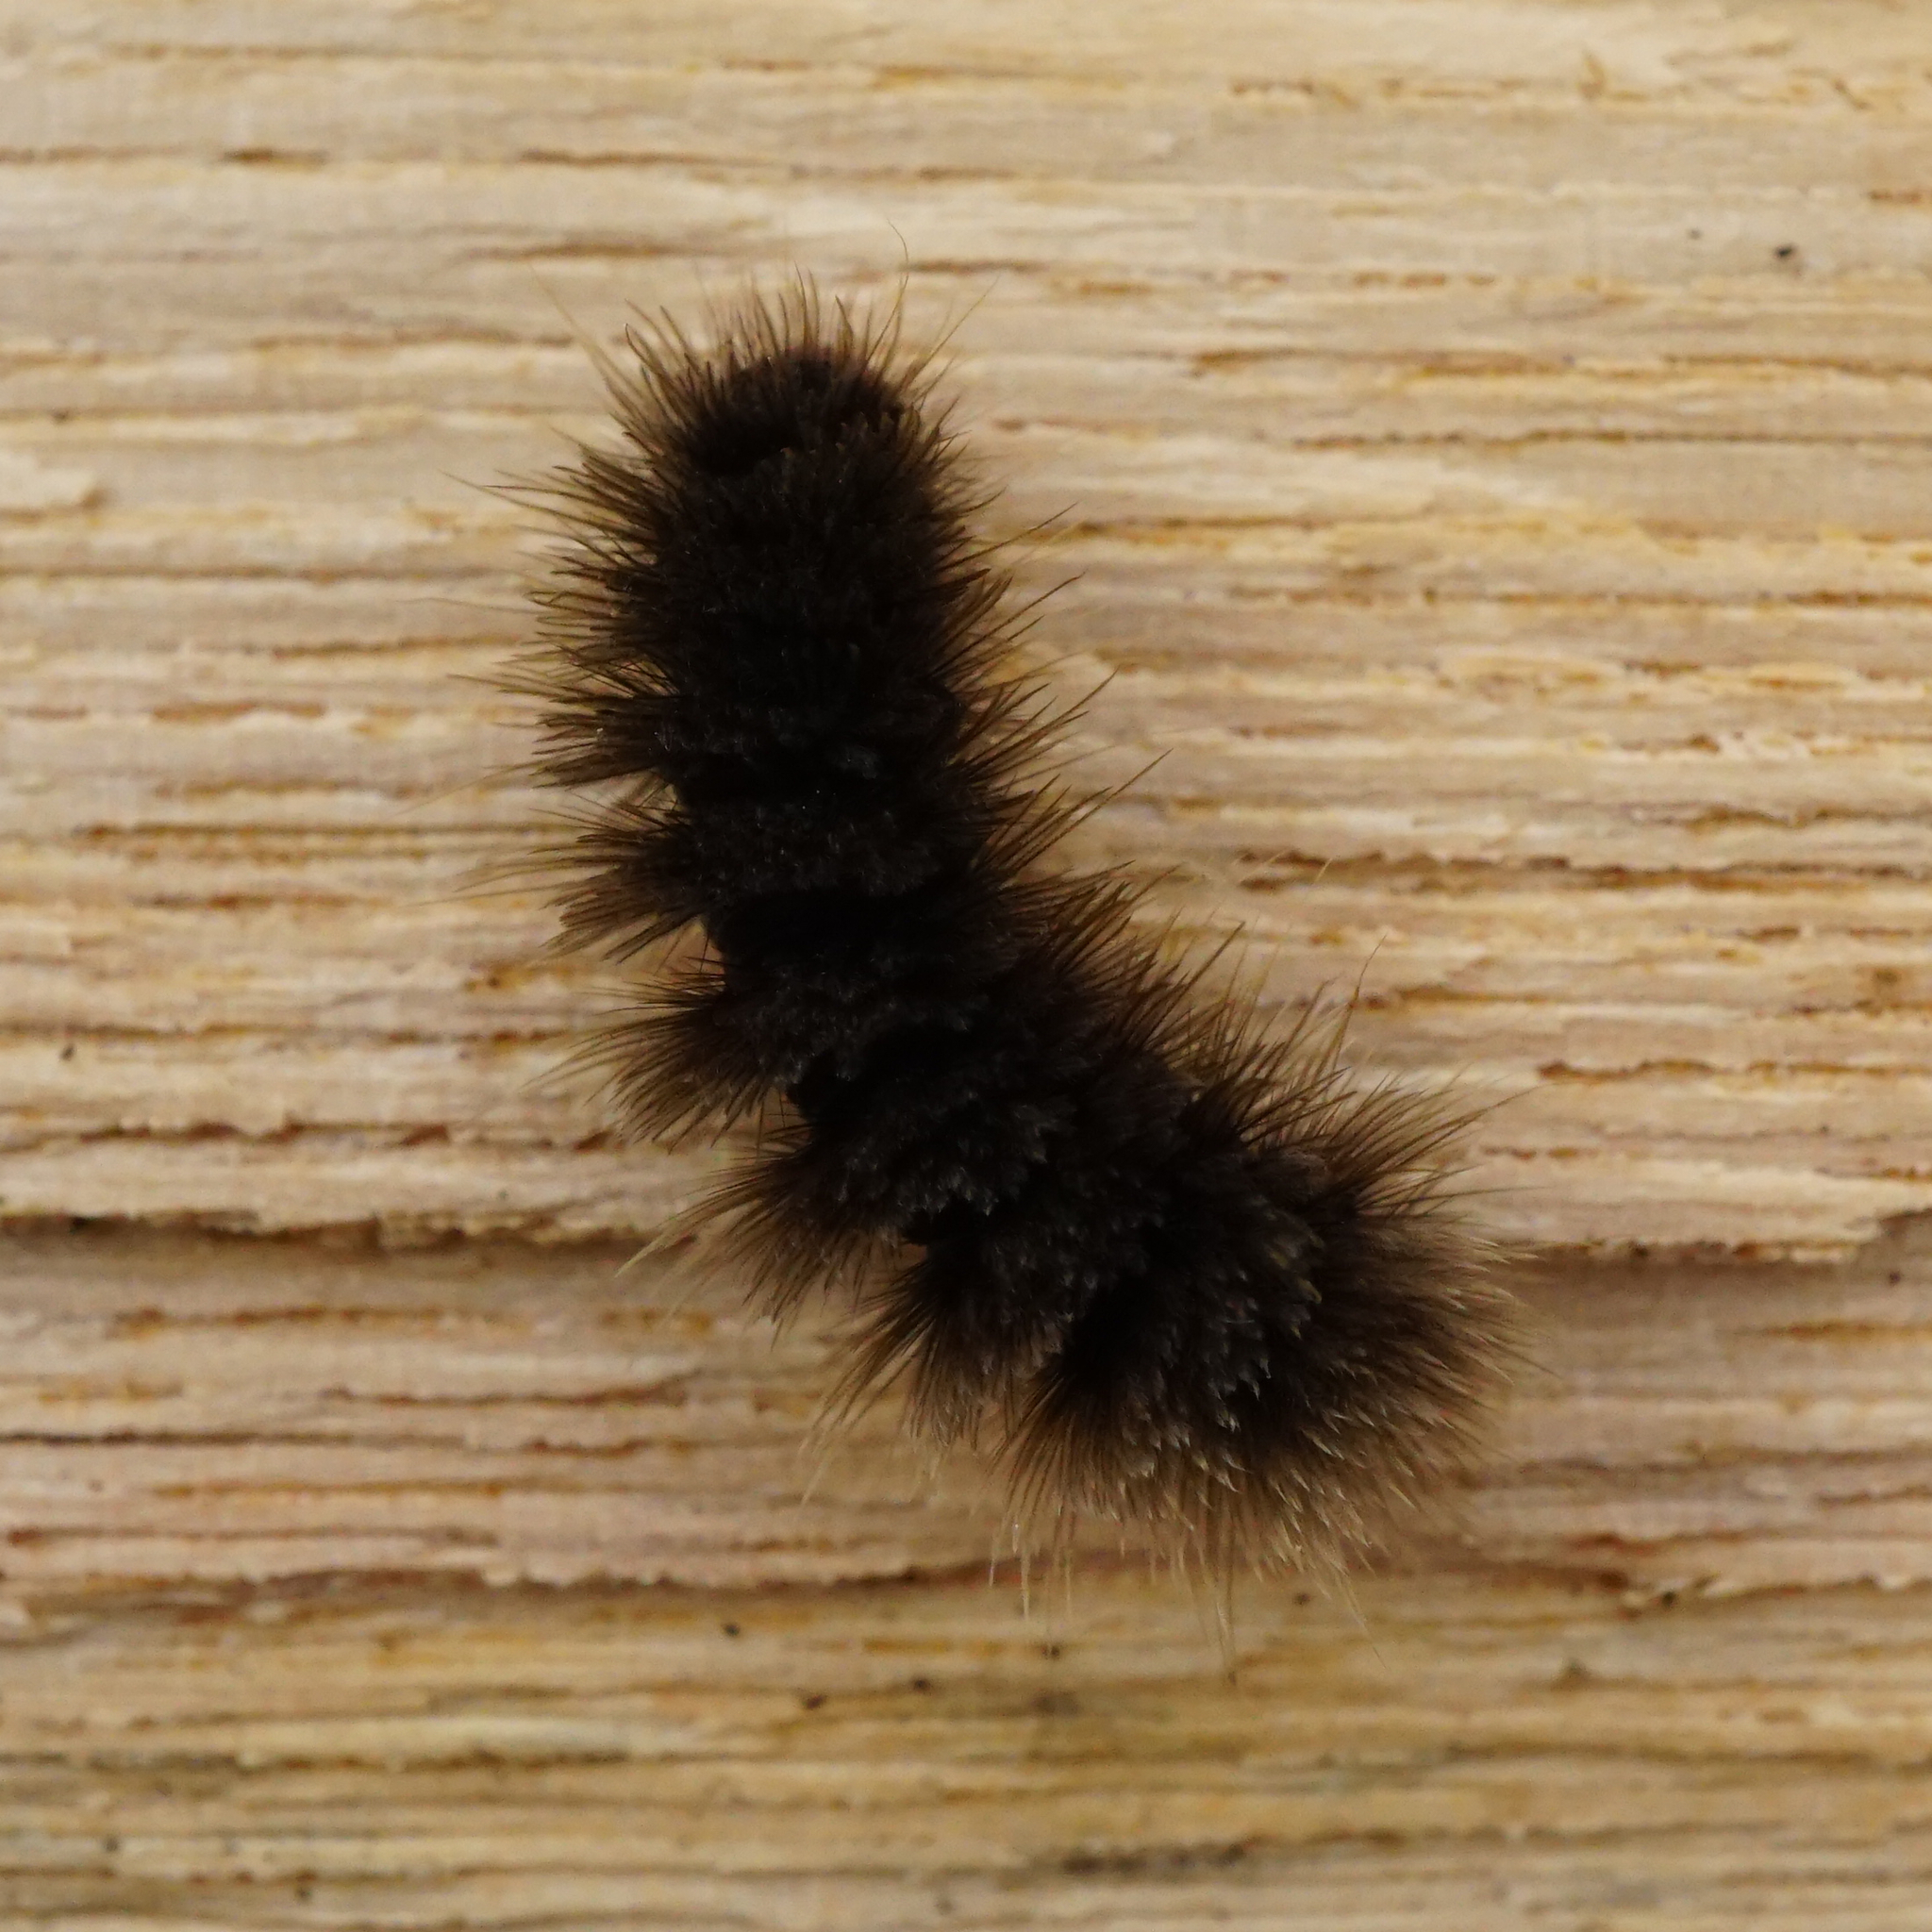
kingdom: Animalia
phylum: Arthropoda
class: Insecta
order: Lepidoptera
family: Erebidae
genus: Amata
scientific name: Amata phegea
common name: Nine-spotted
